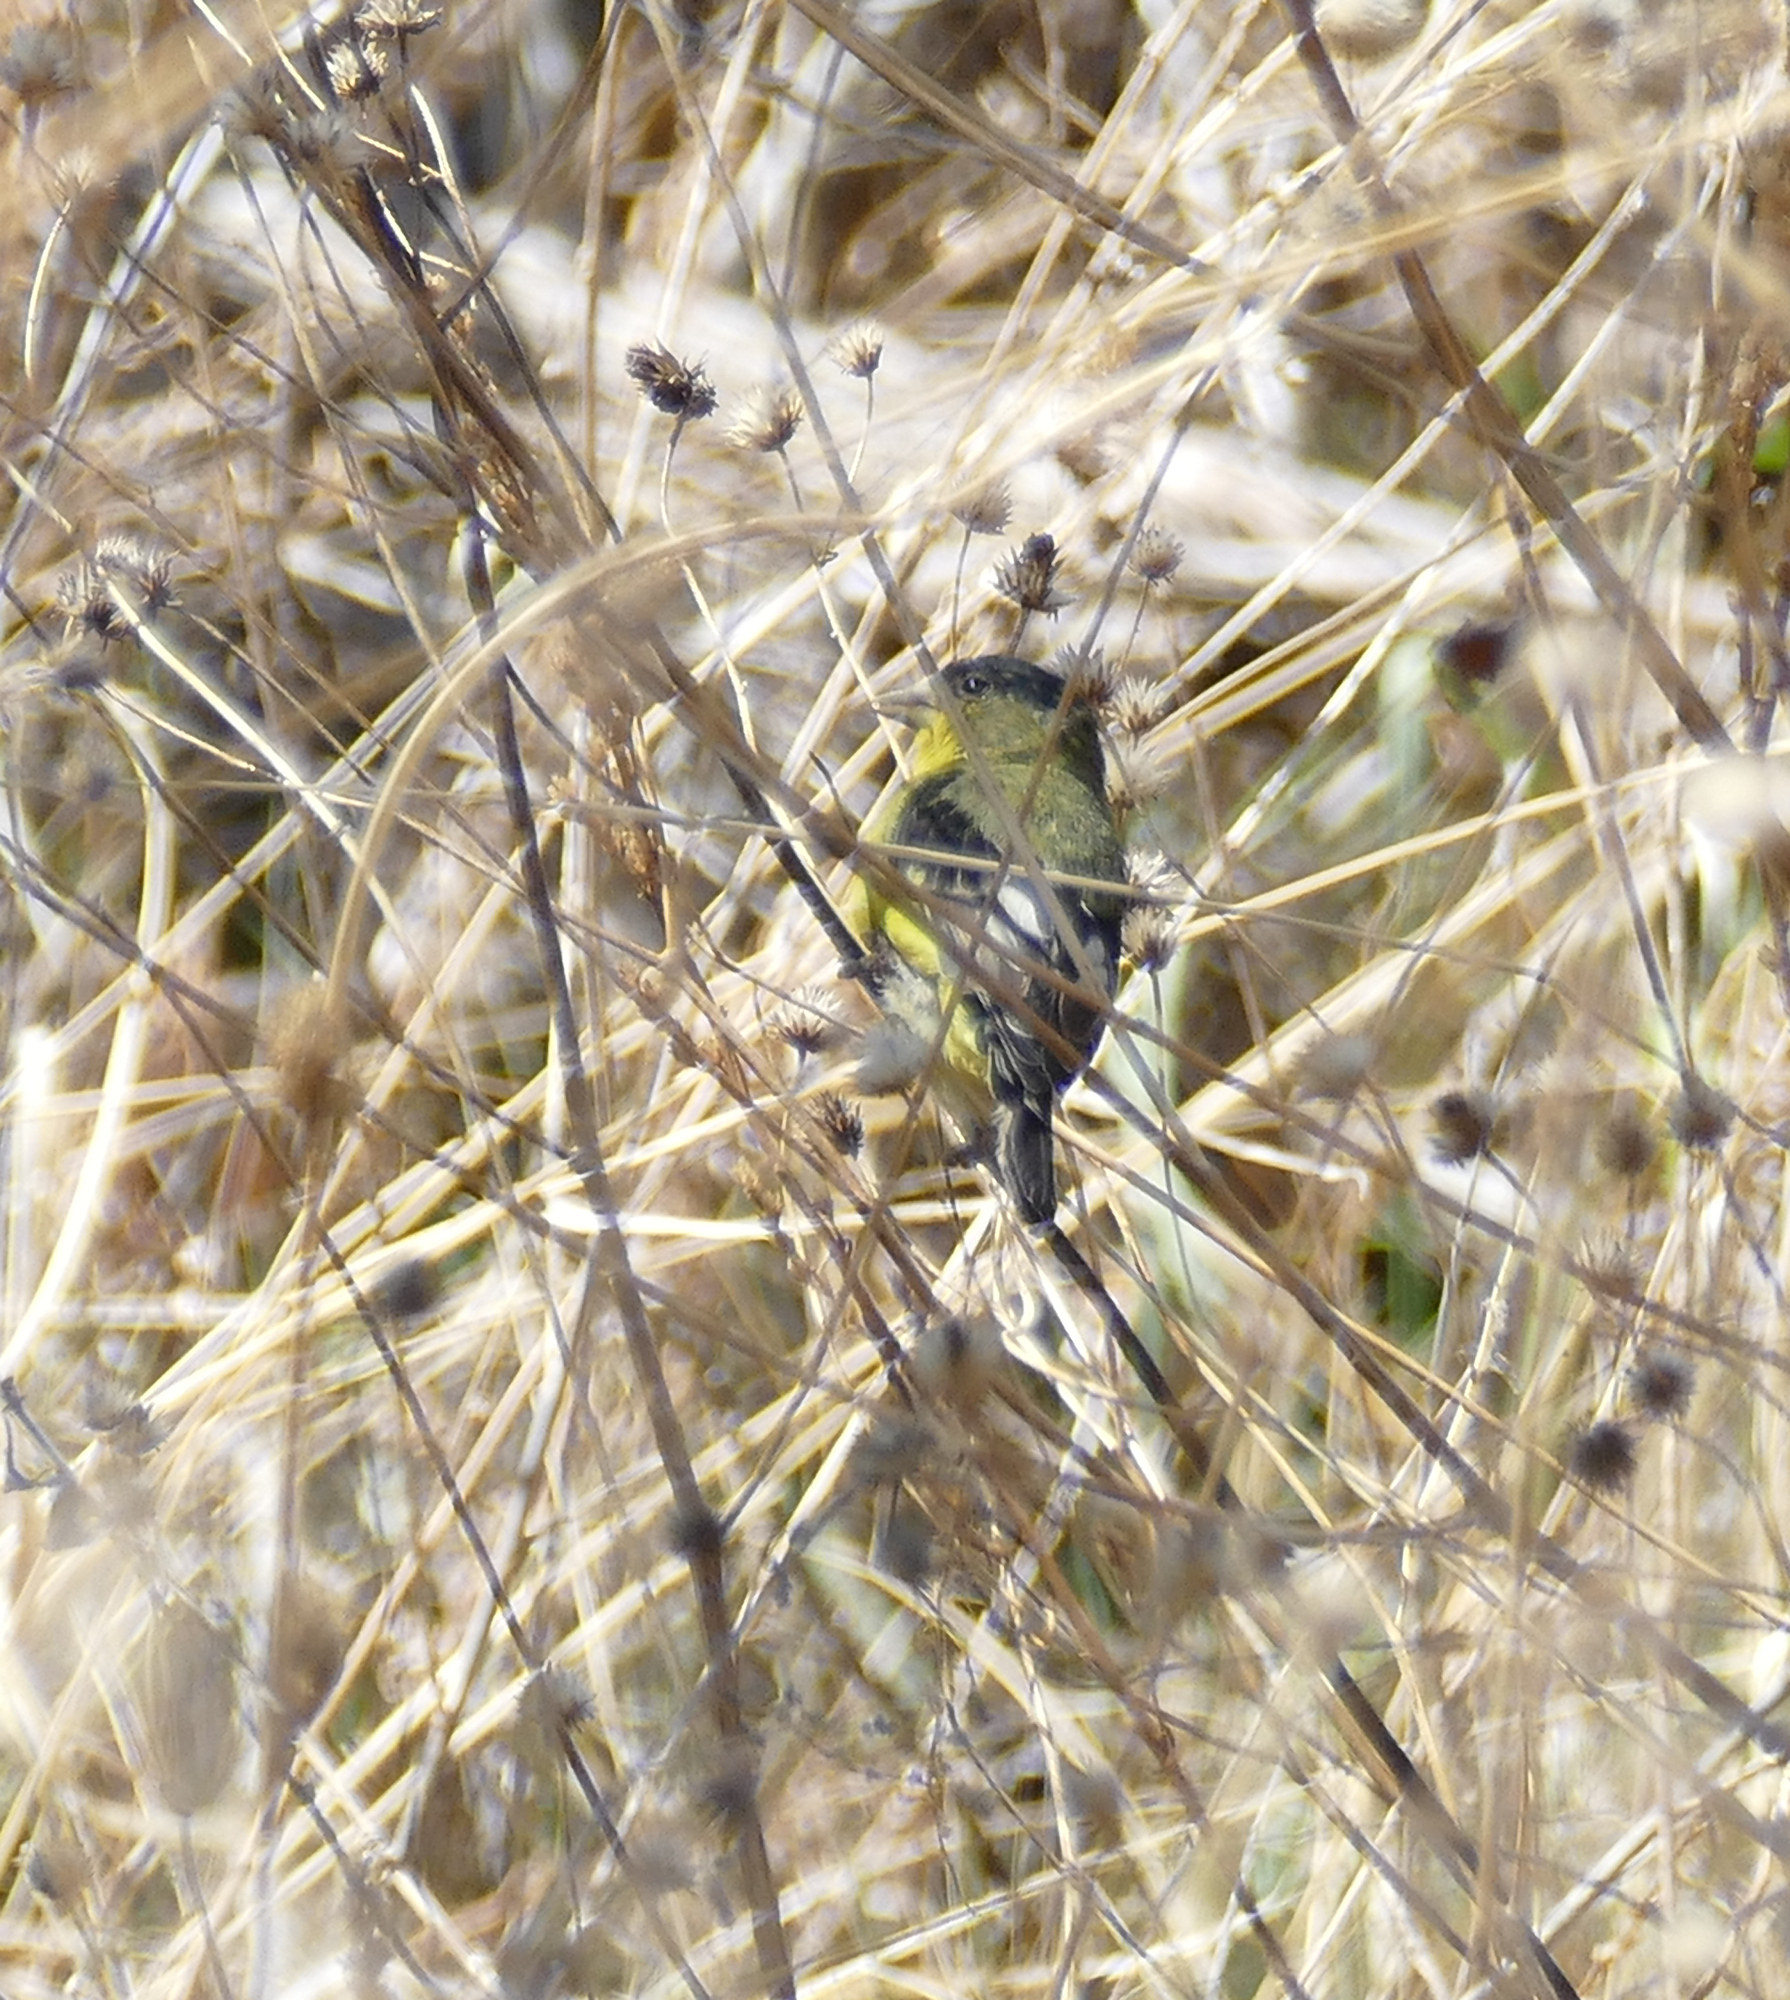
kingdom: Animalia
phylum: Chordata
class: Aves
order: Passeriformes
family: Fringillidae
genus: Spinus
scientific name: Spinus psaltria
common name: Lesser goldfinch
